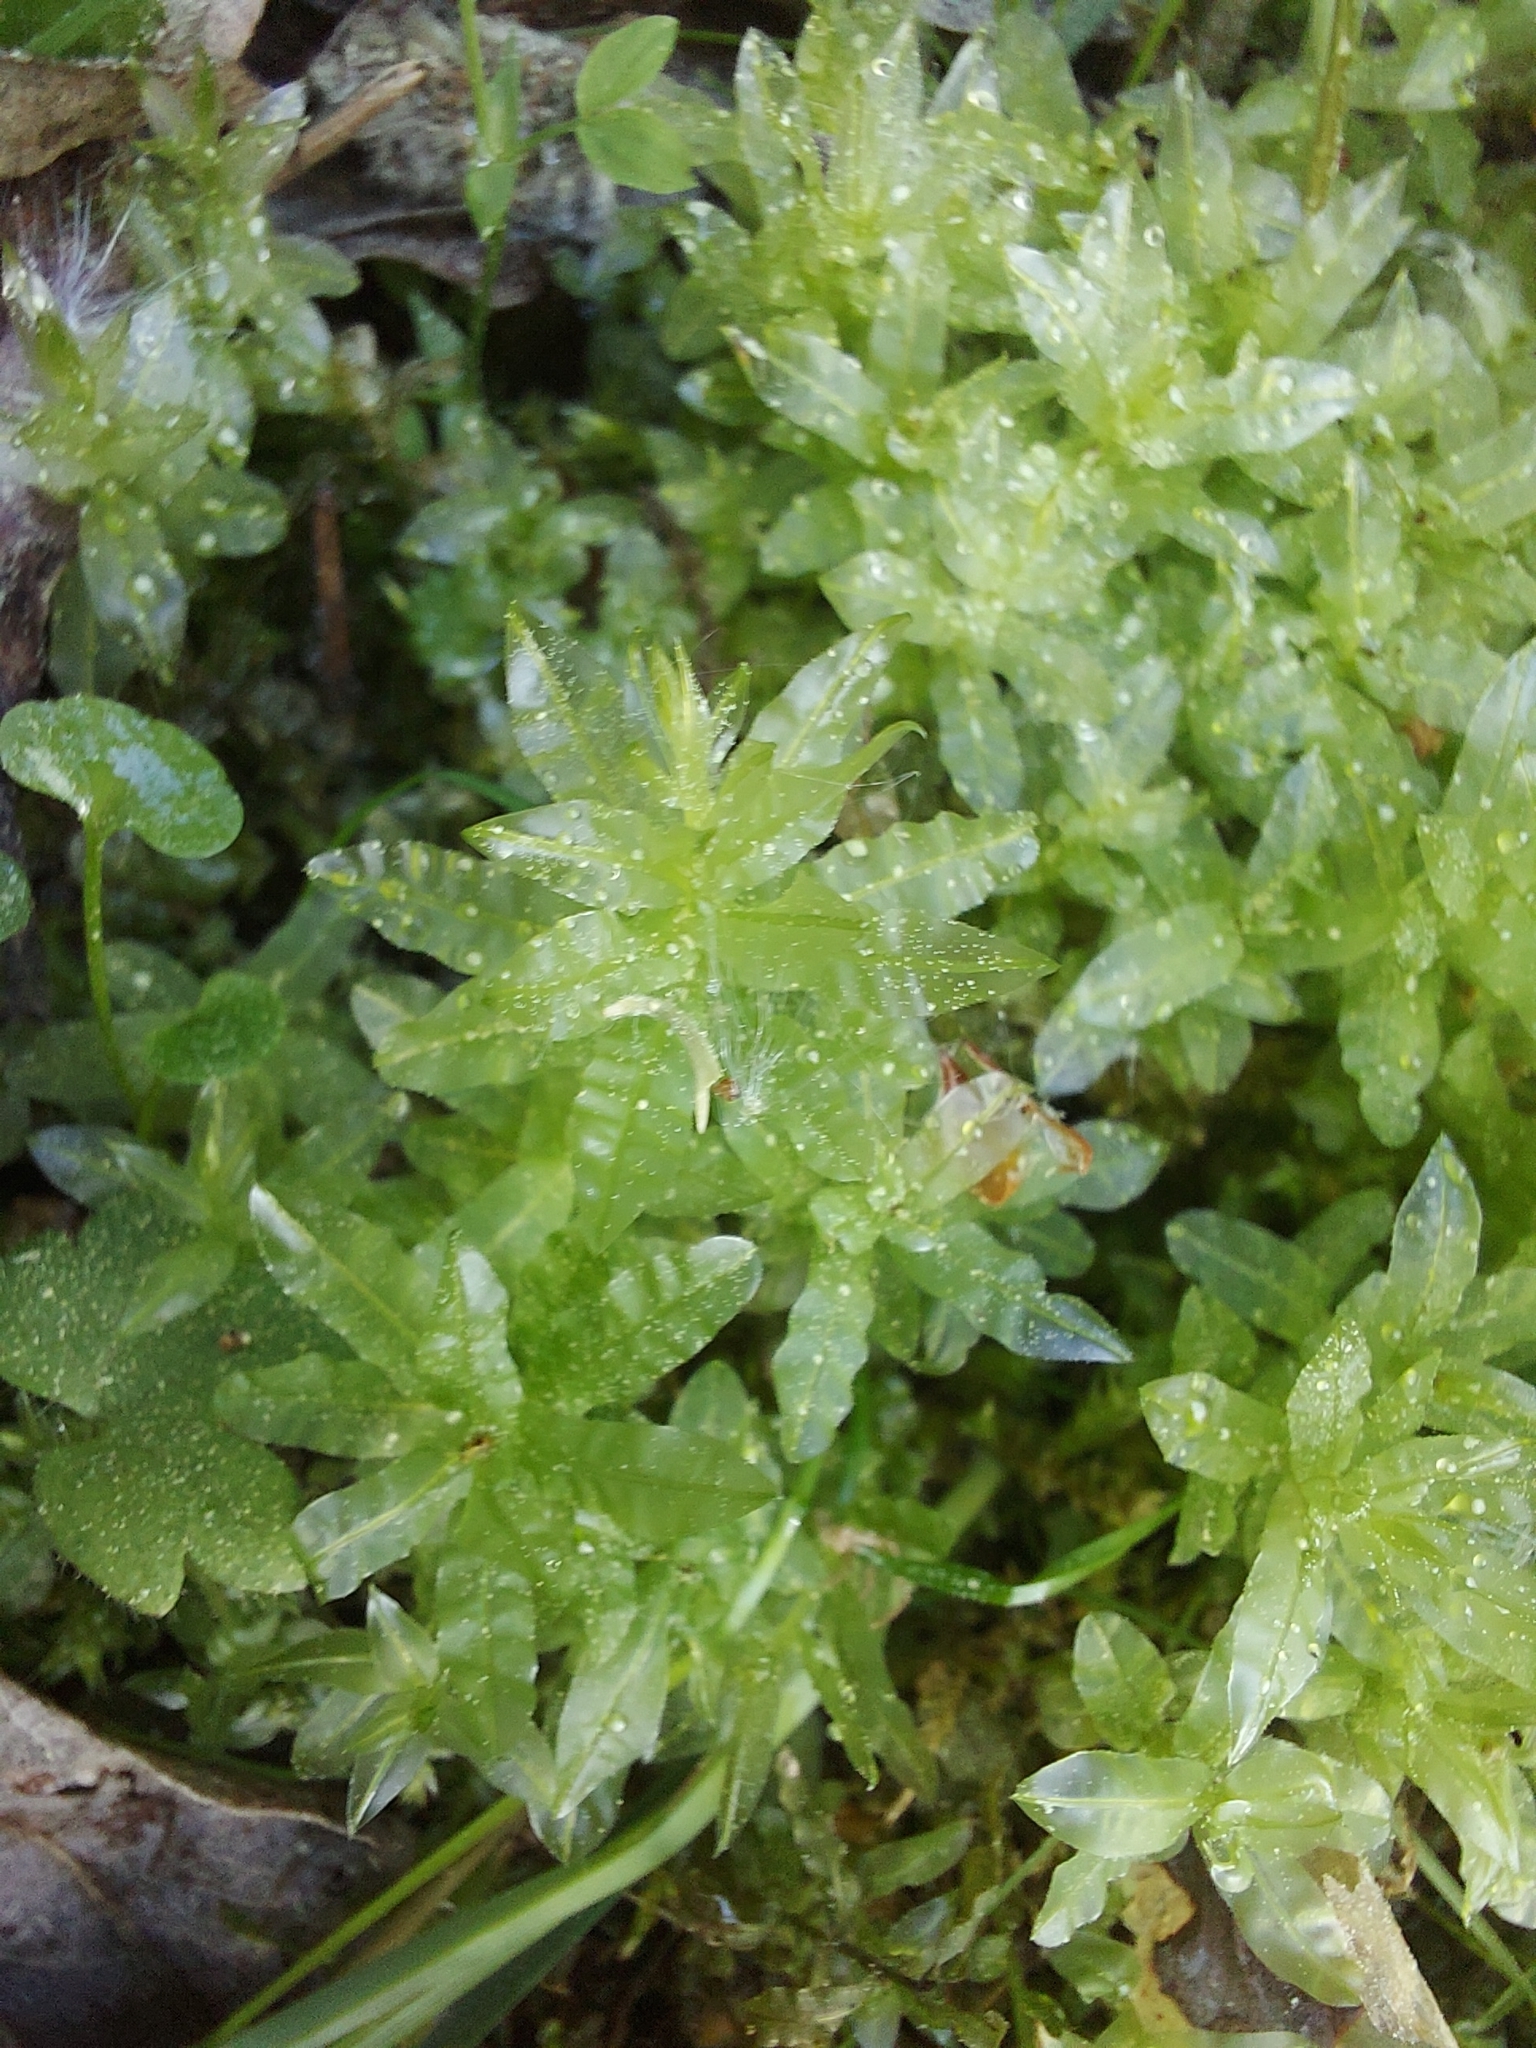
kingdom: Plantae
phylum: Bryophyta
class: Bryopsida
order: Bryales
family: Mniaceae
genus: Plagiomnium
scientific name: Plagiomnium undulatum
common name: Hart's-tongue thyme-moss
